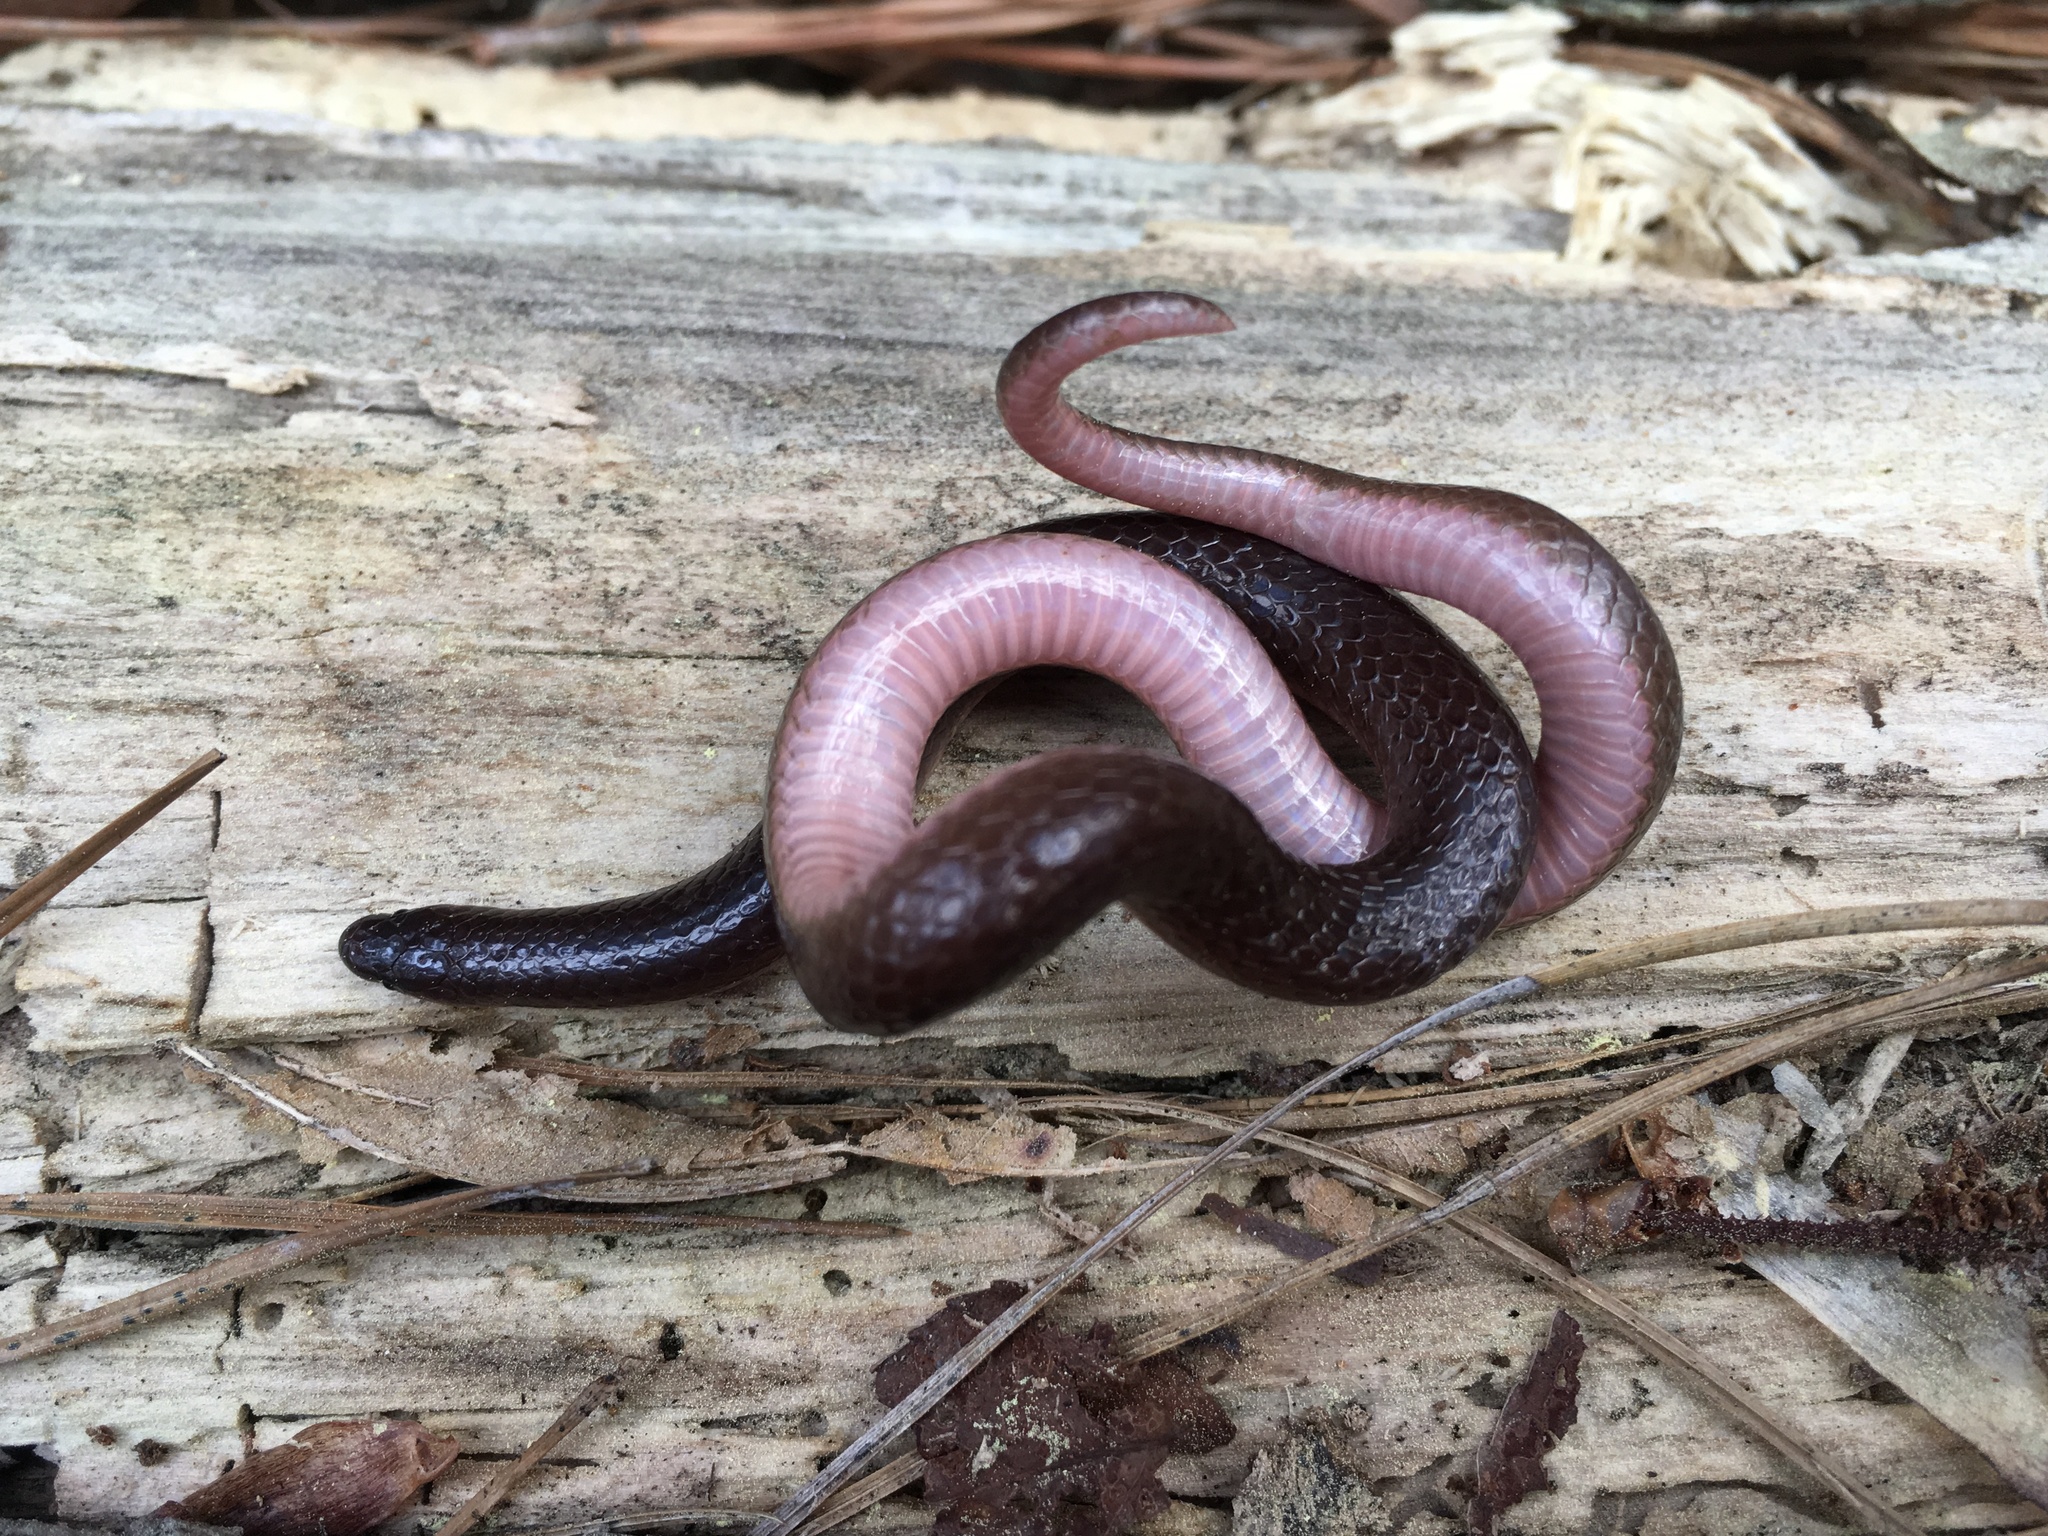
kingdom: Animalia
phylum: Chordata
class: Squamata
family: Colubridae
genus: Carphophis
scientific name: Carphophis amoenus
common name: Eastern worm snake
